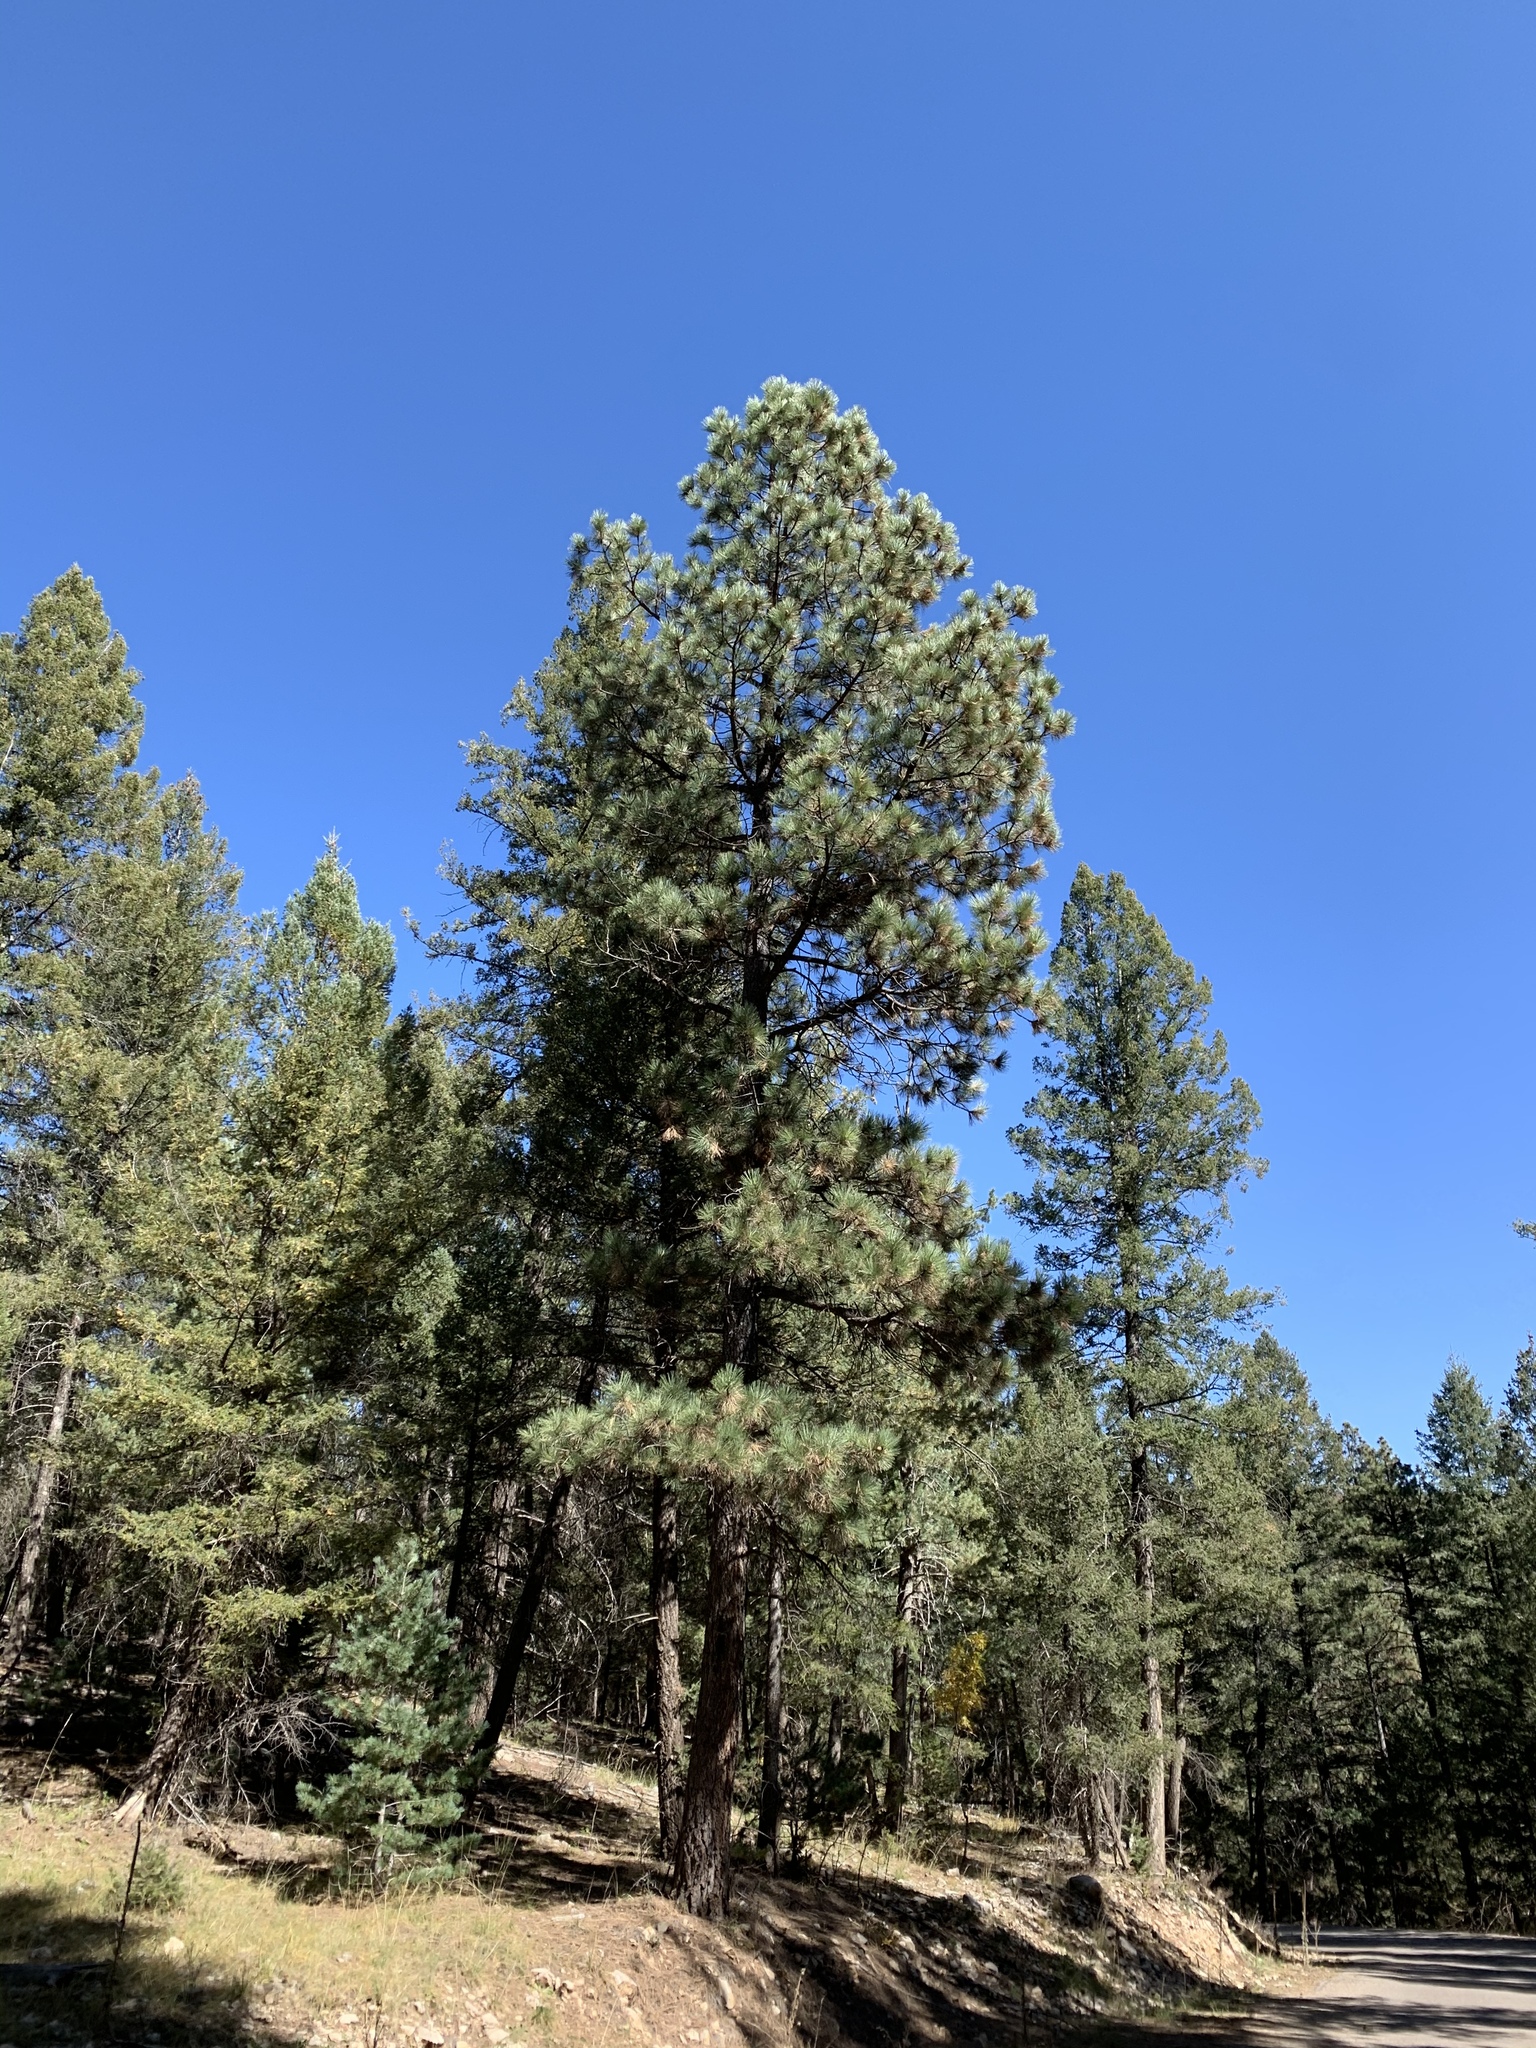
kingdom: Plantae
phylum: Tracheophyta
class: Pinopsida
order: Pinales
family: Pinaceae
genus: Pinus
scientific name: Pinus ponderosa
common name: Western yellow-pine
